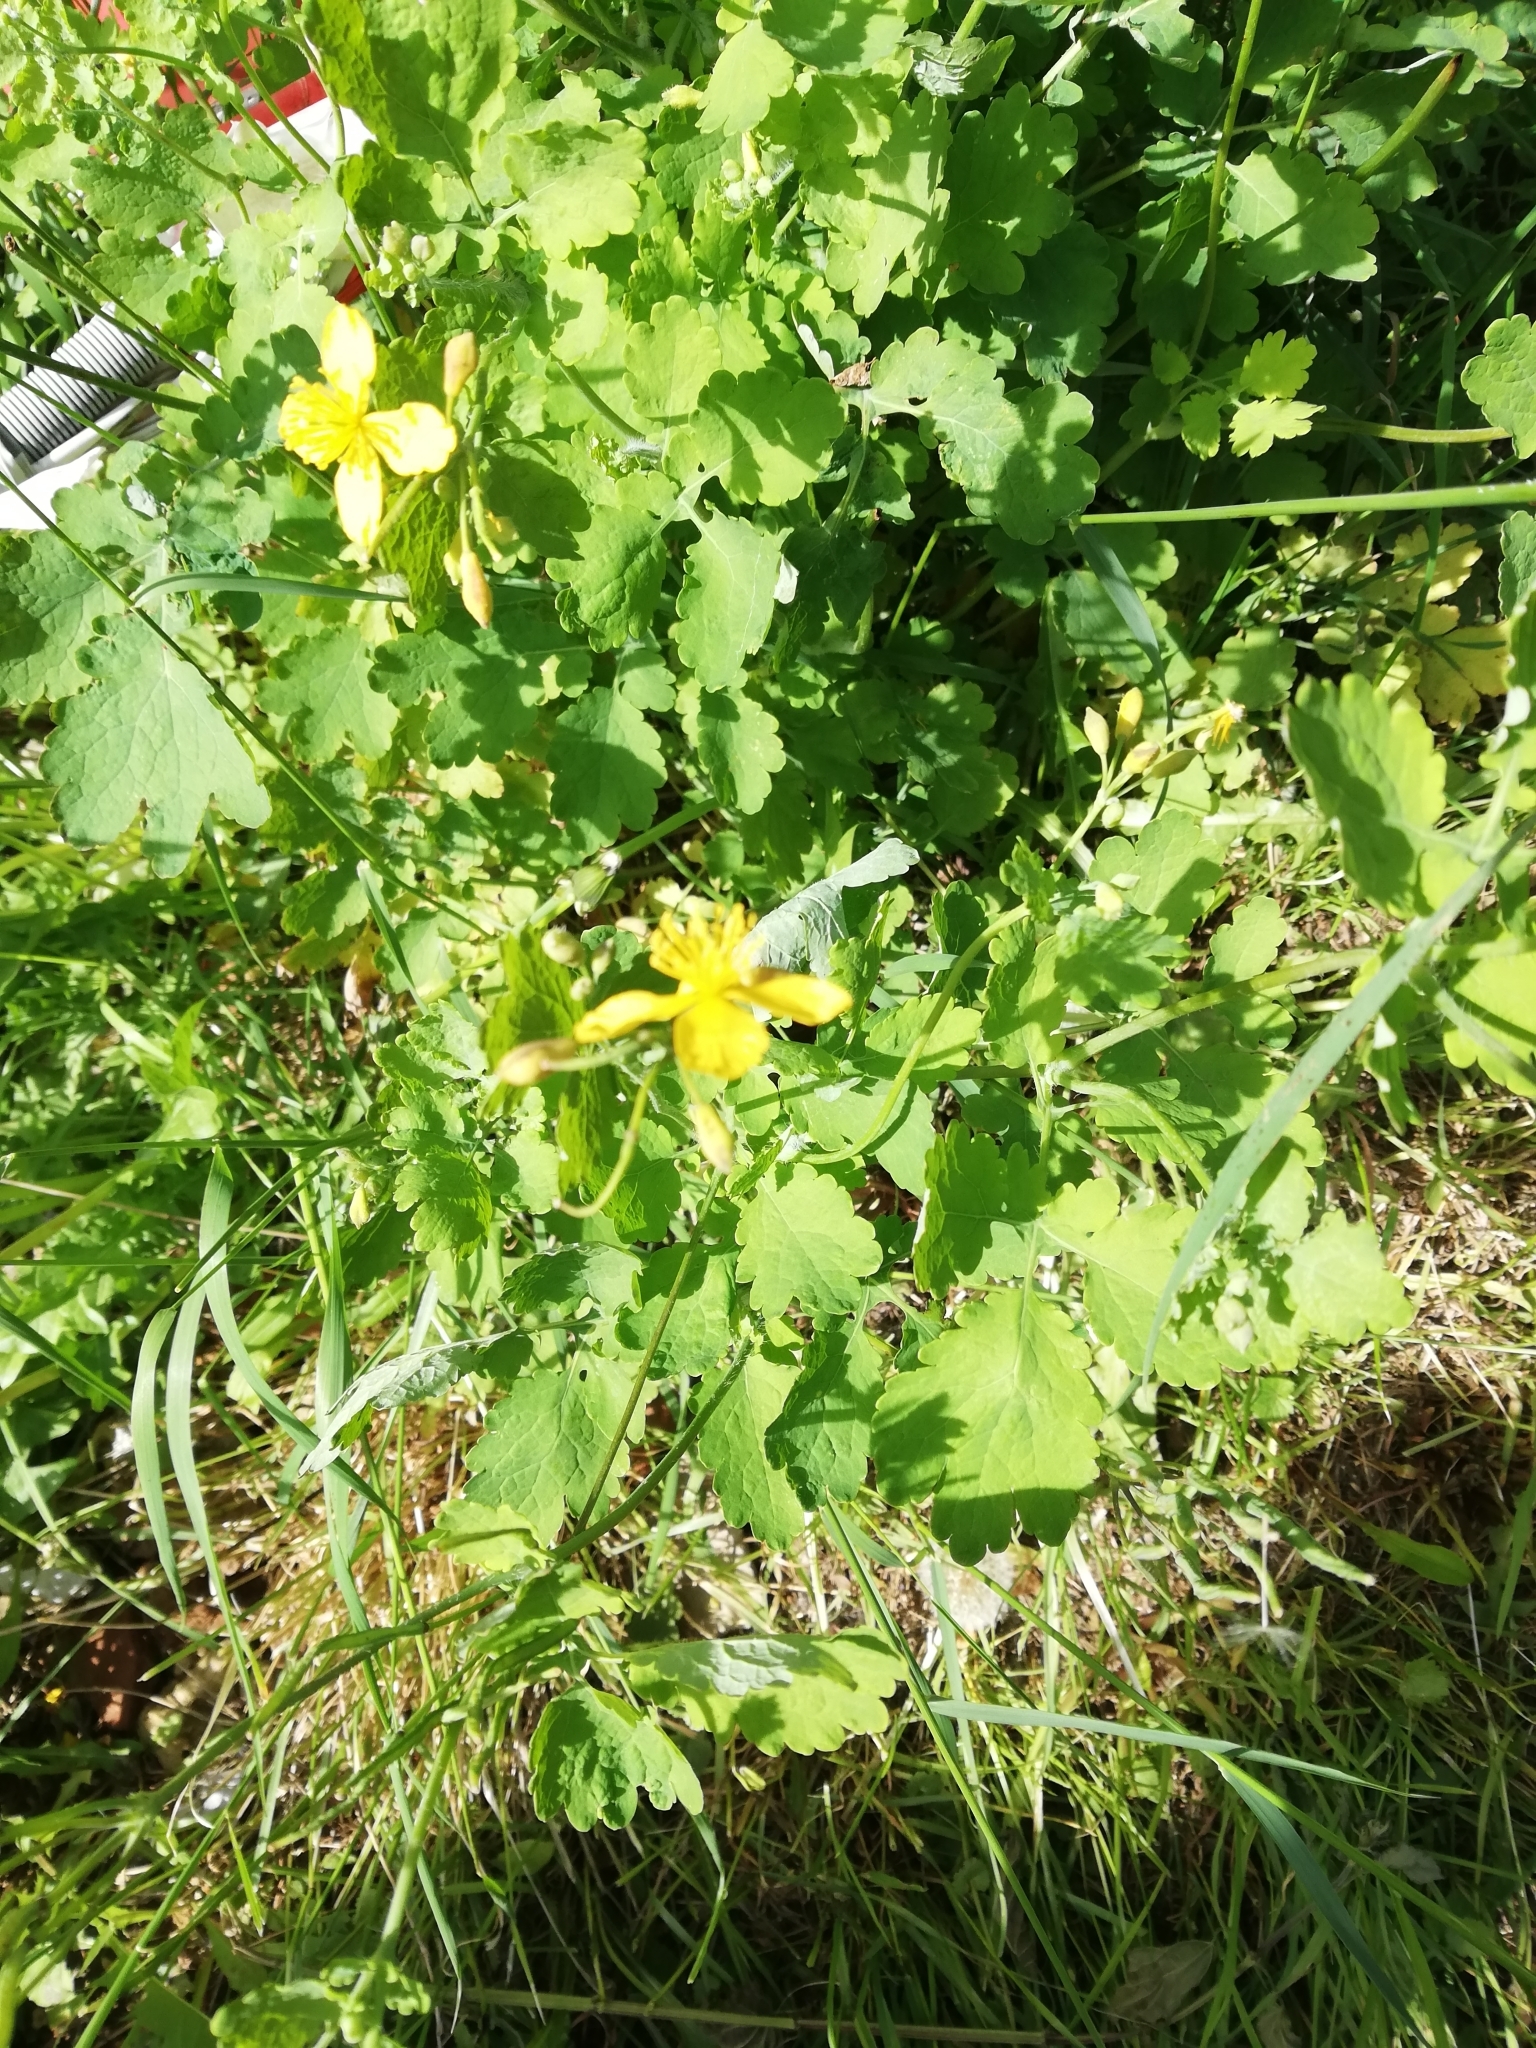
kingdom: Plantae
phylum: Tracheophyta
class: Magnoliopsida
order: Ranunculales
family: Papaveraceae
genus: Chelidonium
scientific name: Chelidonium majus
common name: Greater celandine
